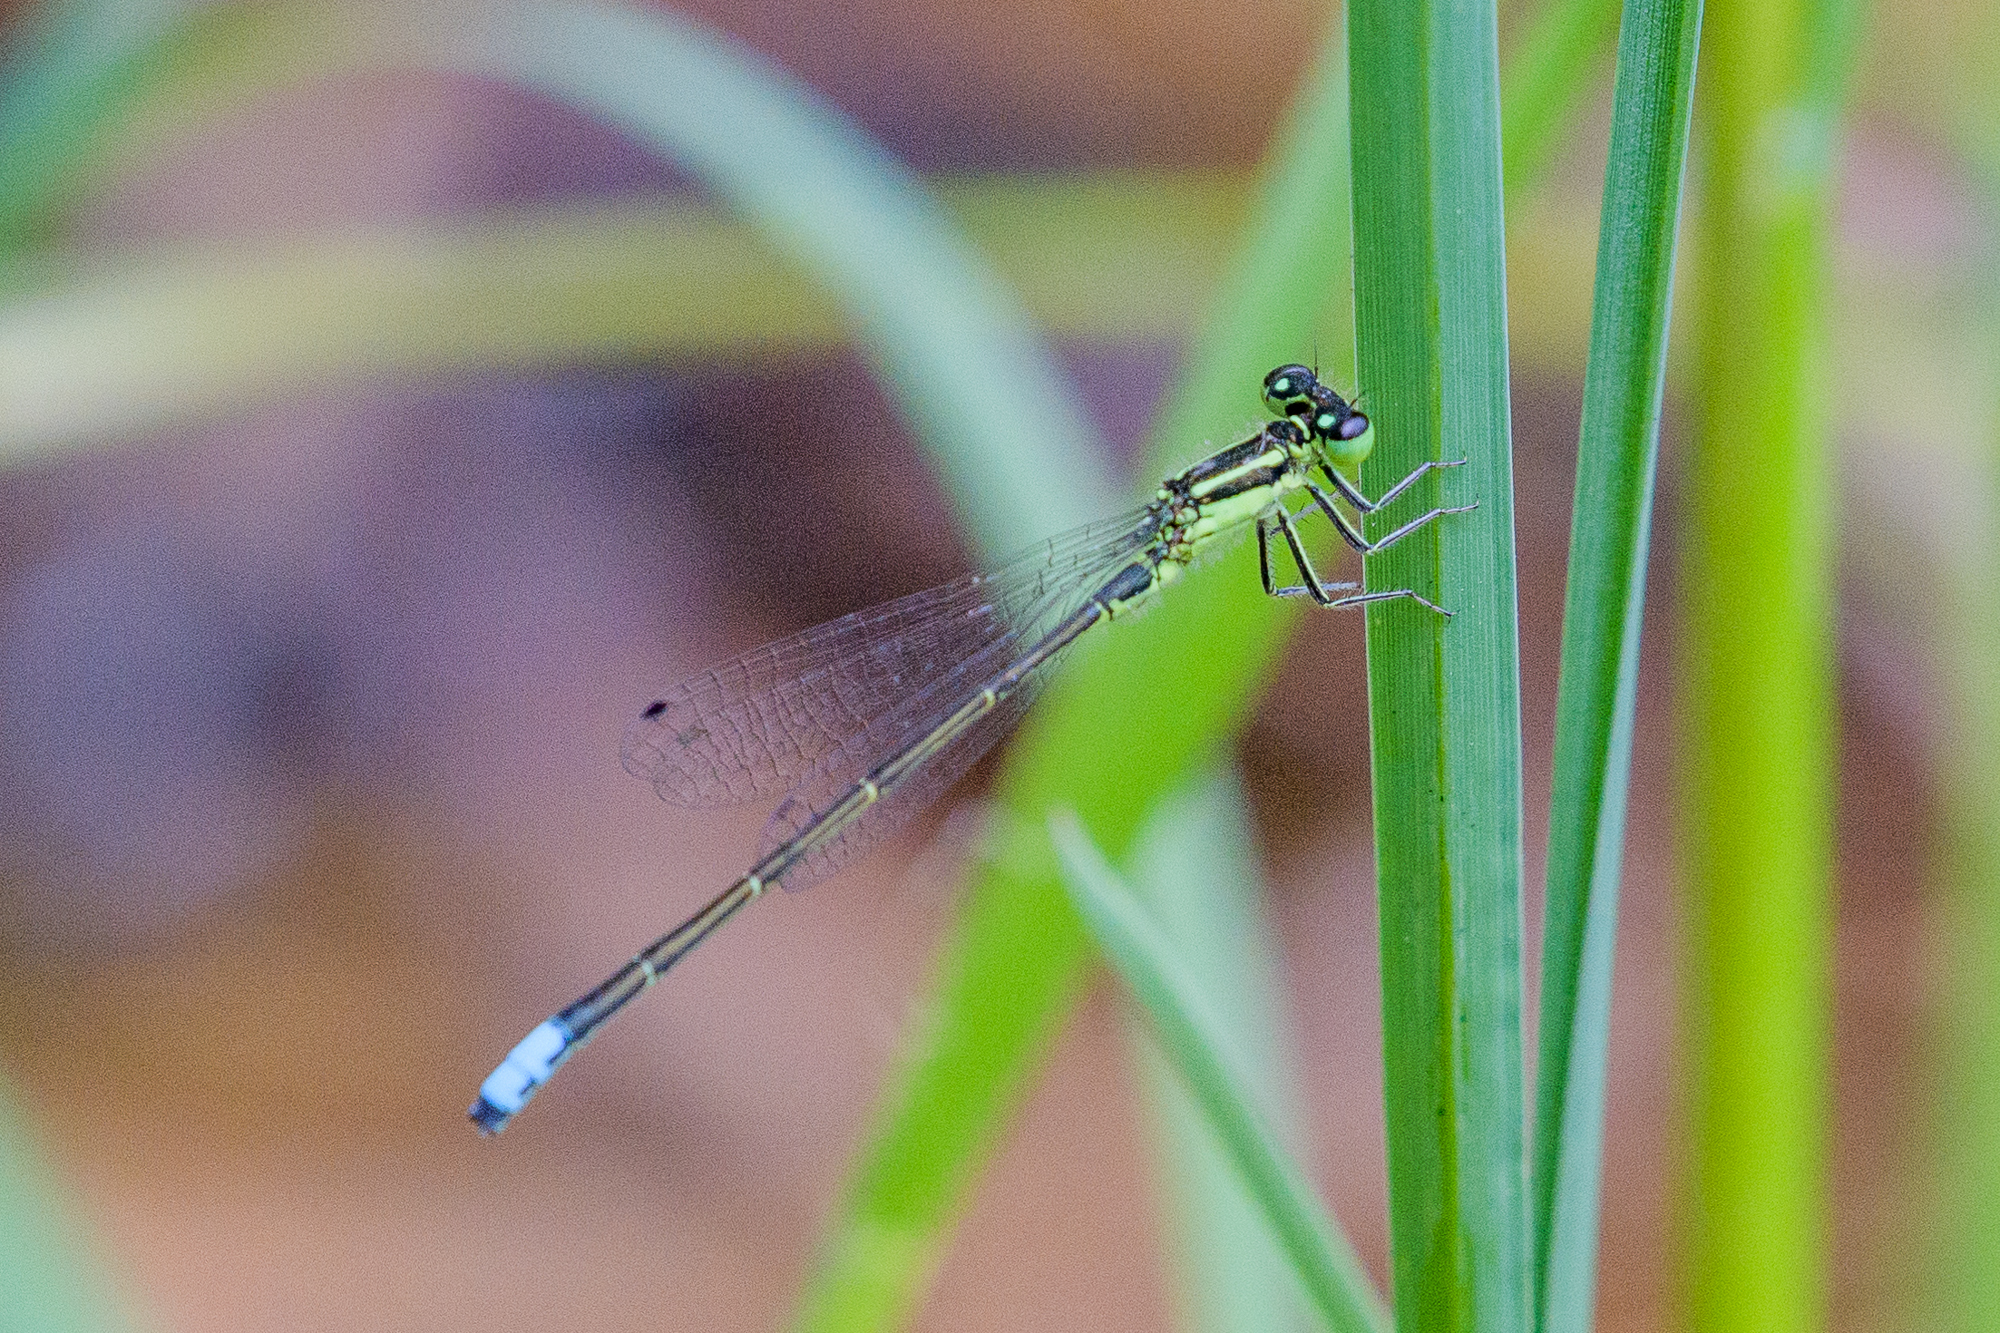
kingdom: Animalia
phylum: Arthropoda
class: Insecta
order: Odonata
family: Coenagrionidae
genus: Ischnura
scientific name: Ischnura verticalis
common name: Eastern forktail
